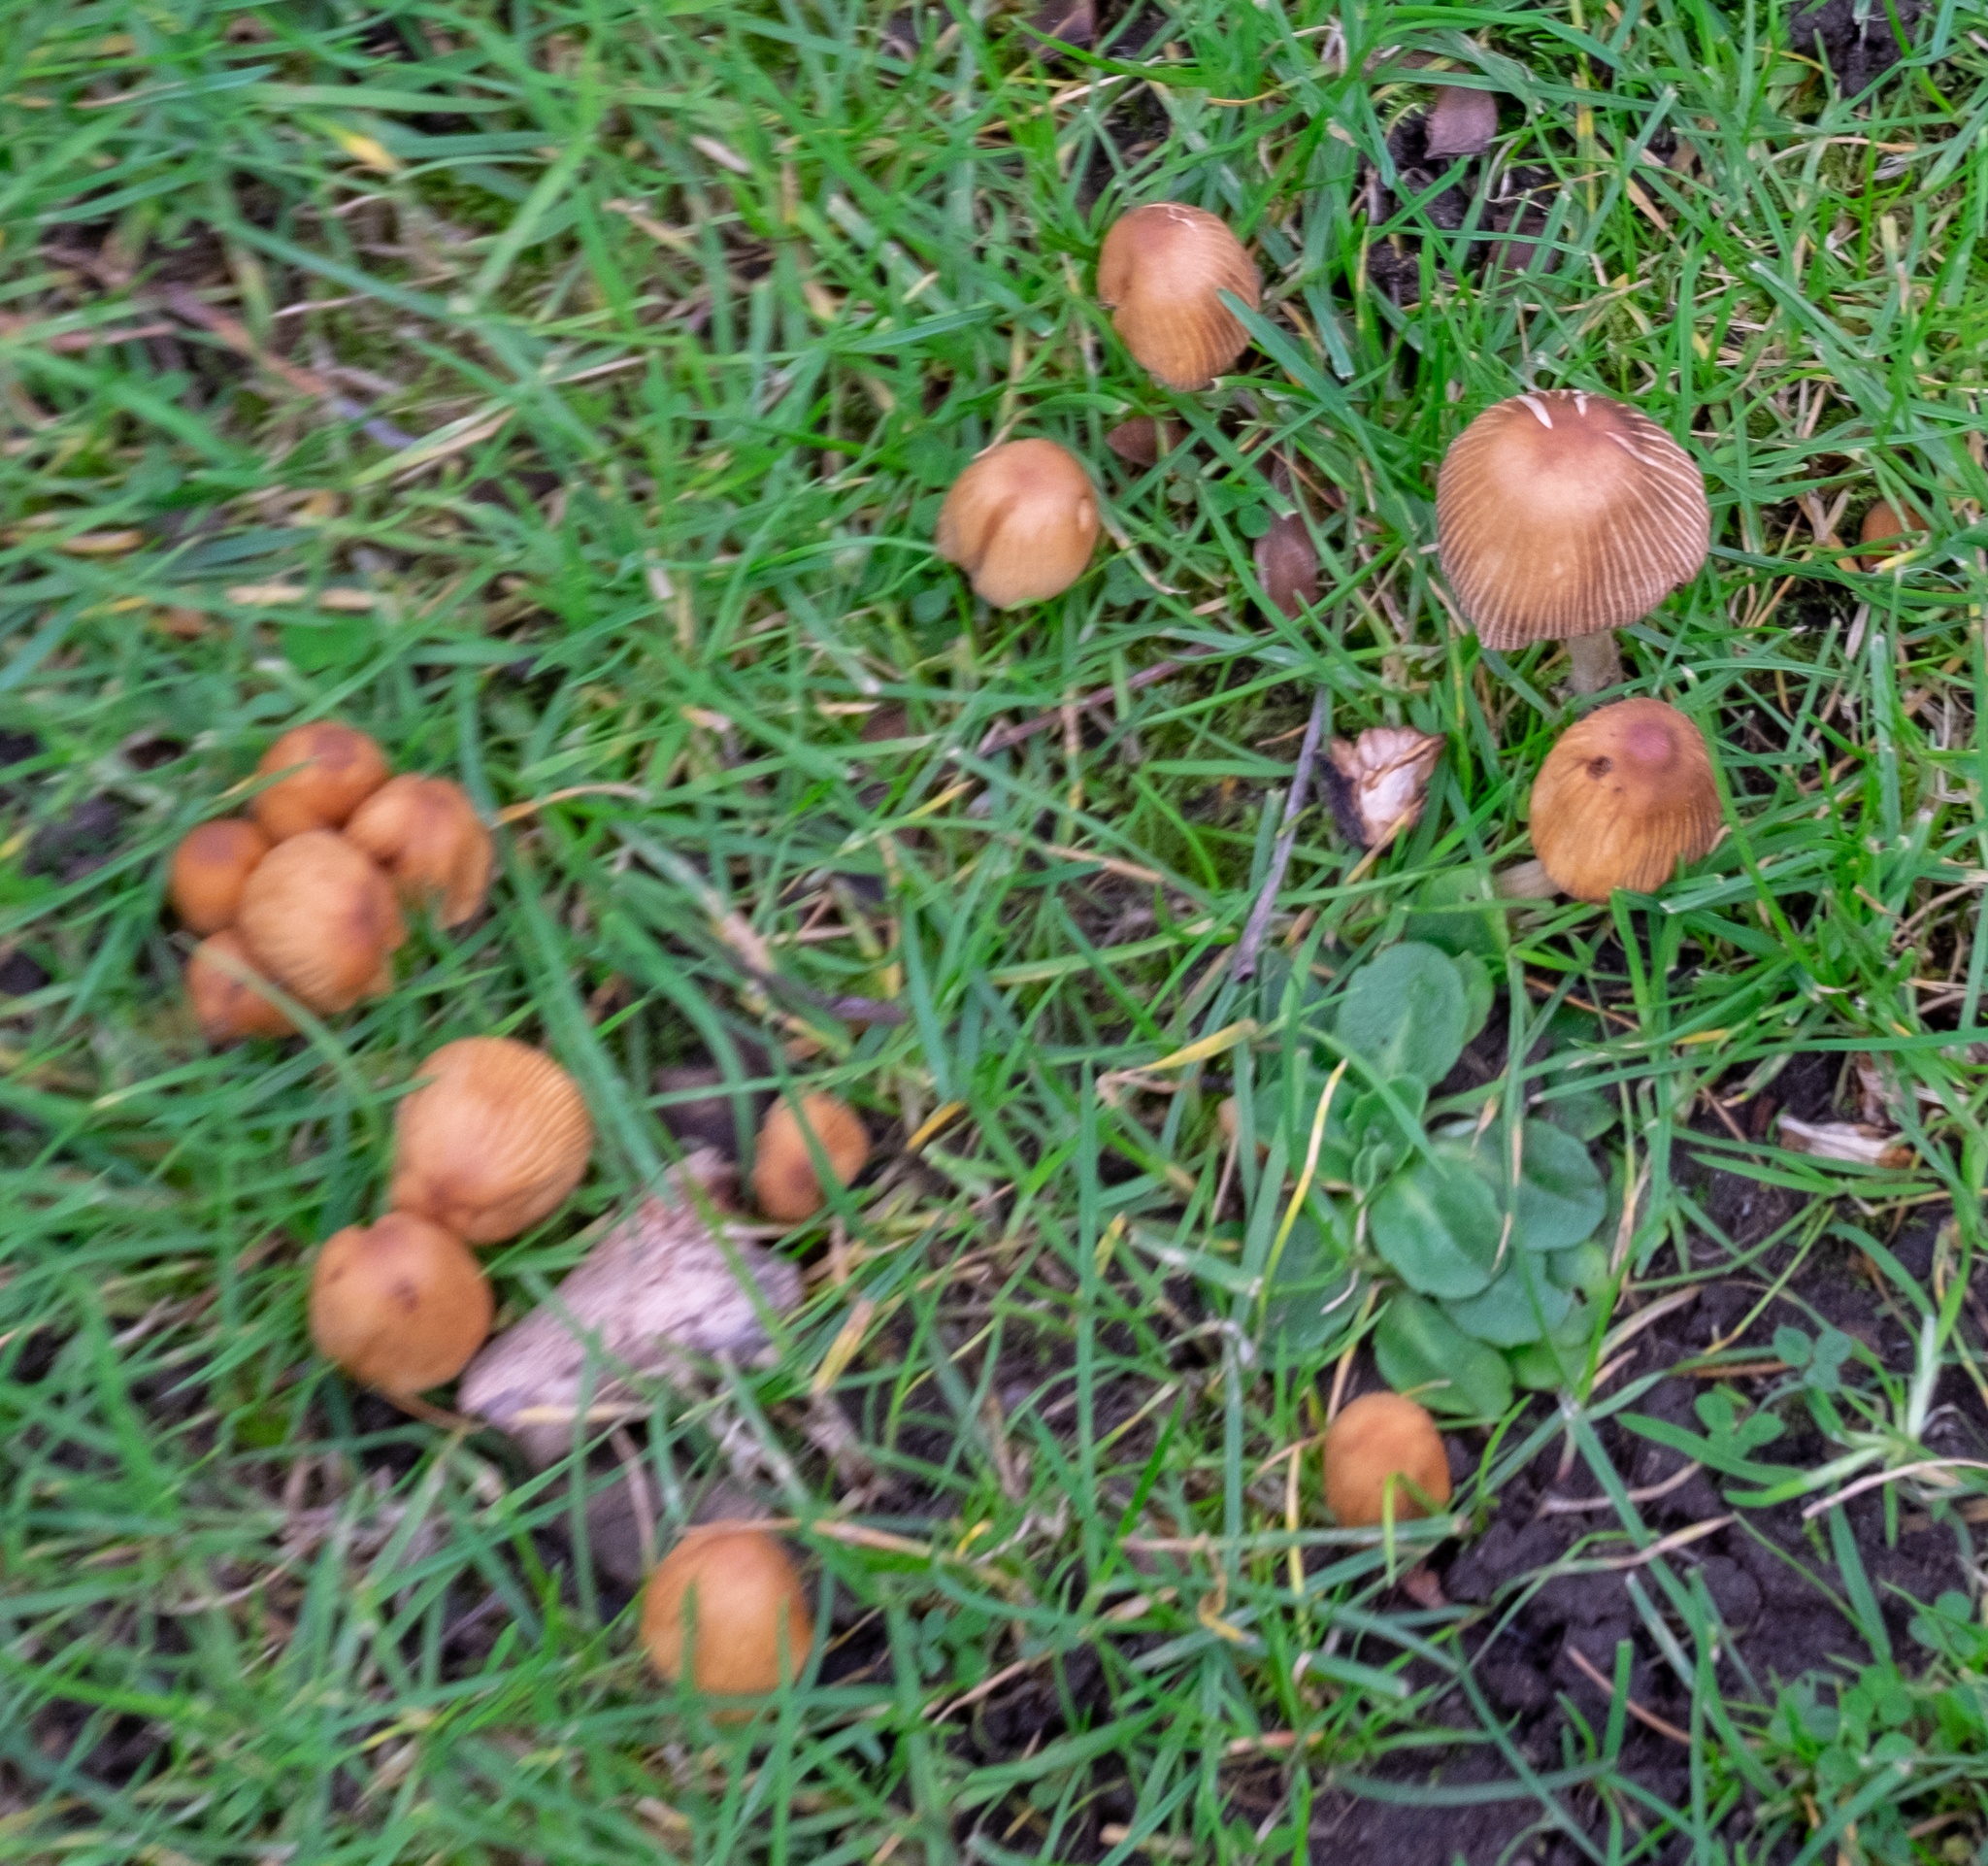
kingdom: Fungi
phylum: Basidiomycota
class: Agaricomycetes
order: Agaricales
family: Psathyrellaceae
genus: Coprinellus
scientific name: Coprinellus micaceus
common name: Glistening ink-cap
